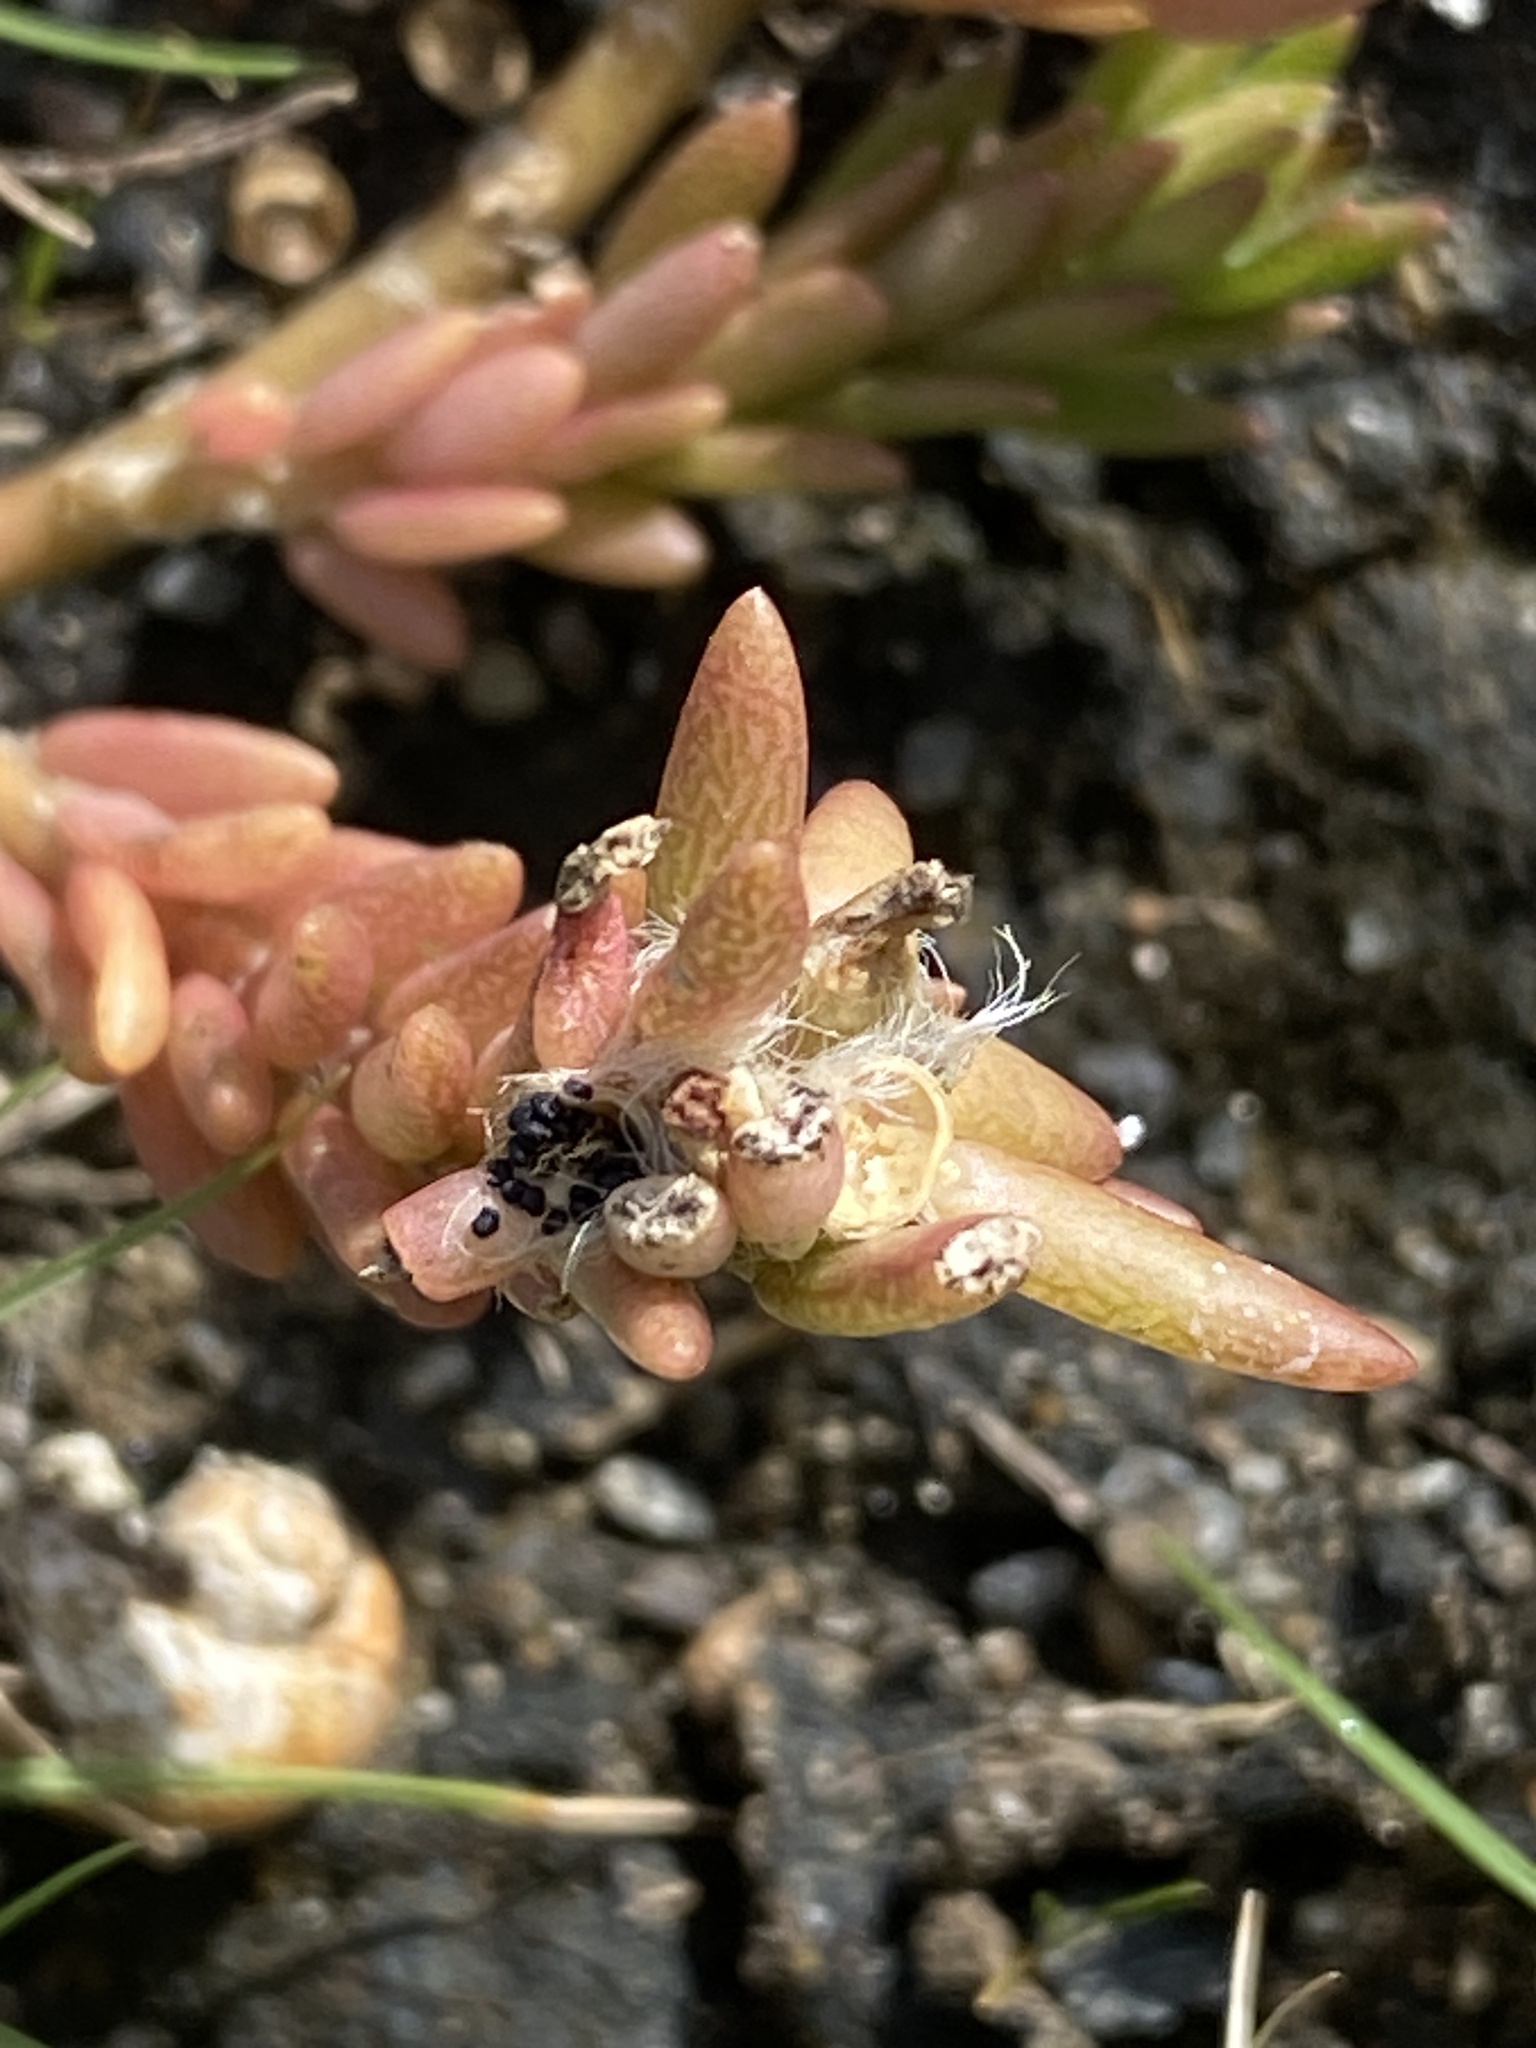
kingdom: Plantae
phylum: Tracheophyta
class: Magnoliopsida
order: Caryophyllales
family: Portulacaceae
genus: Portulaca
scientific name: Portulaca pilosa
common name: Kiss me quick
